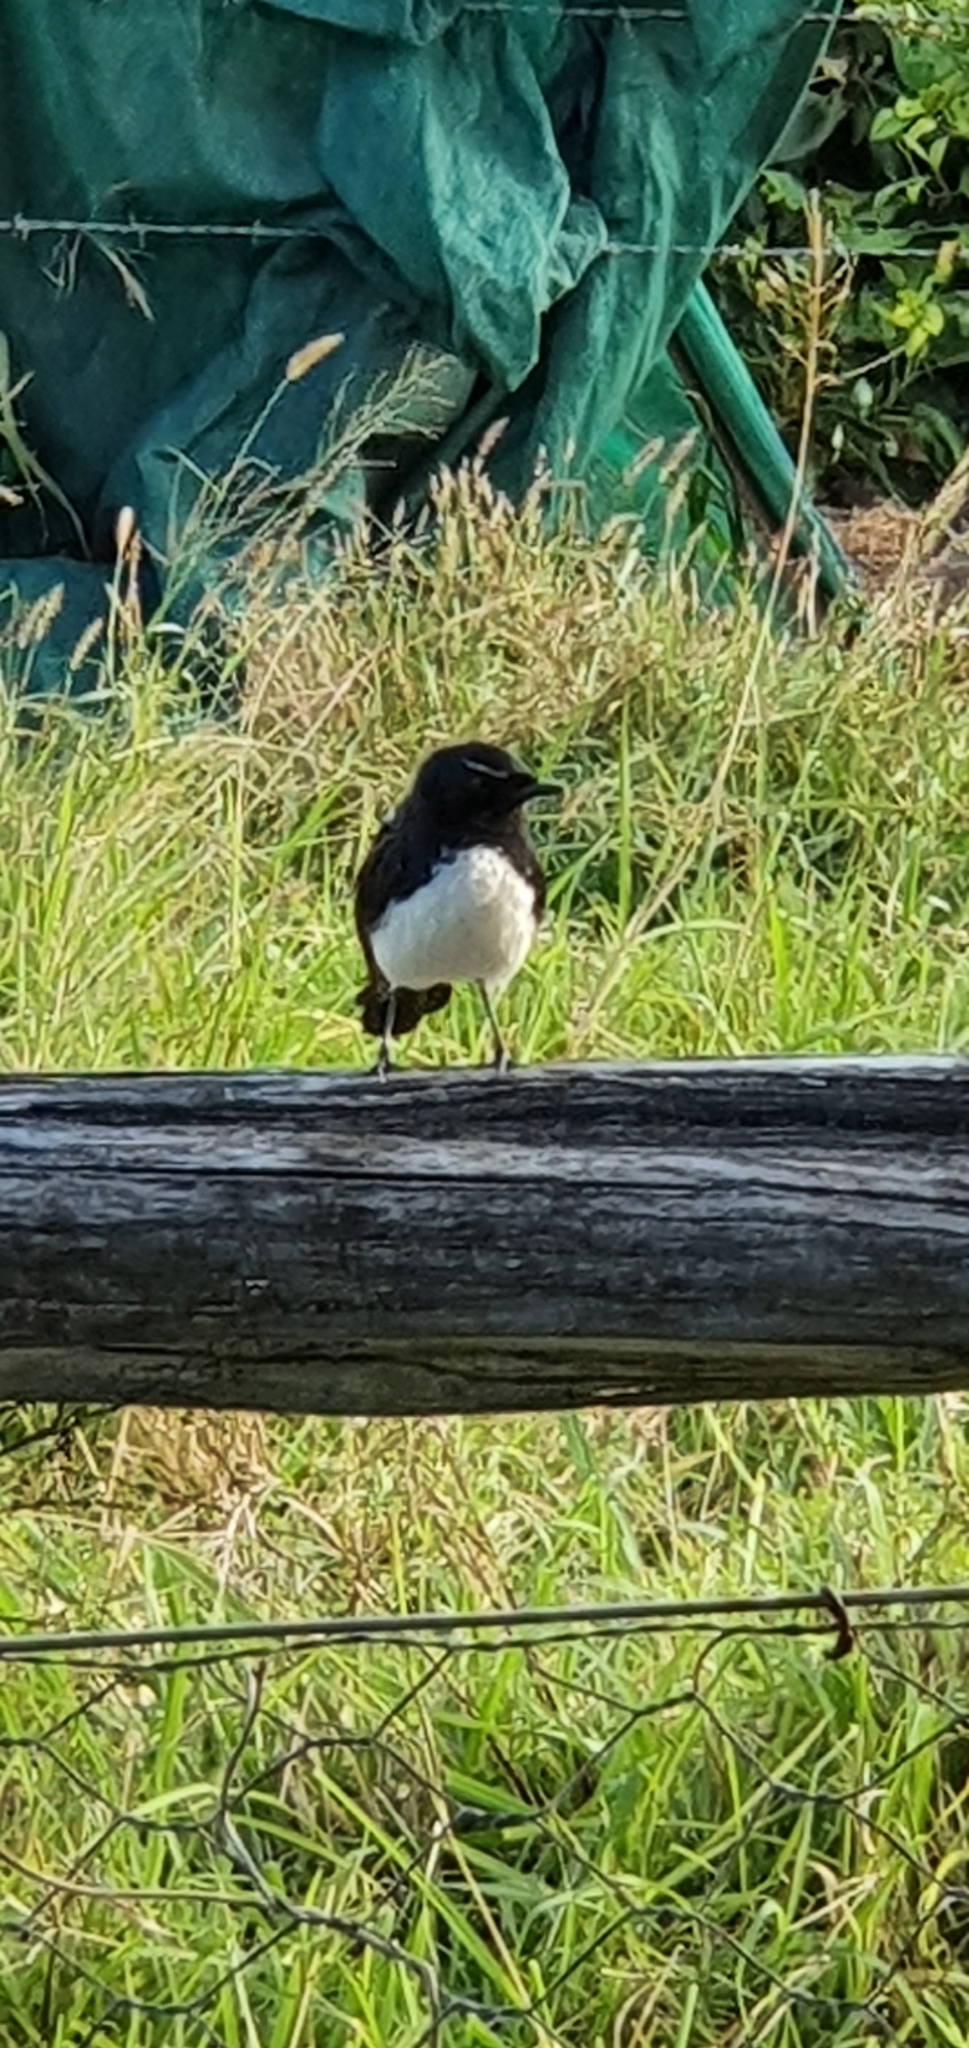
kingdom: Animalia
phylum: Chordata
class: Aves
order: Passeriformes
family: Rhipiduridae
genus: Rhipidura
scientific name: Rhipidura leucophrys
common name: Willie wagtail
